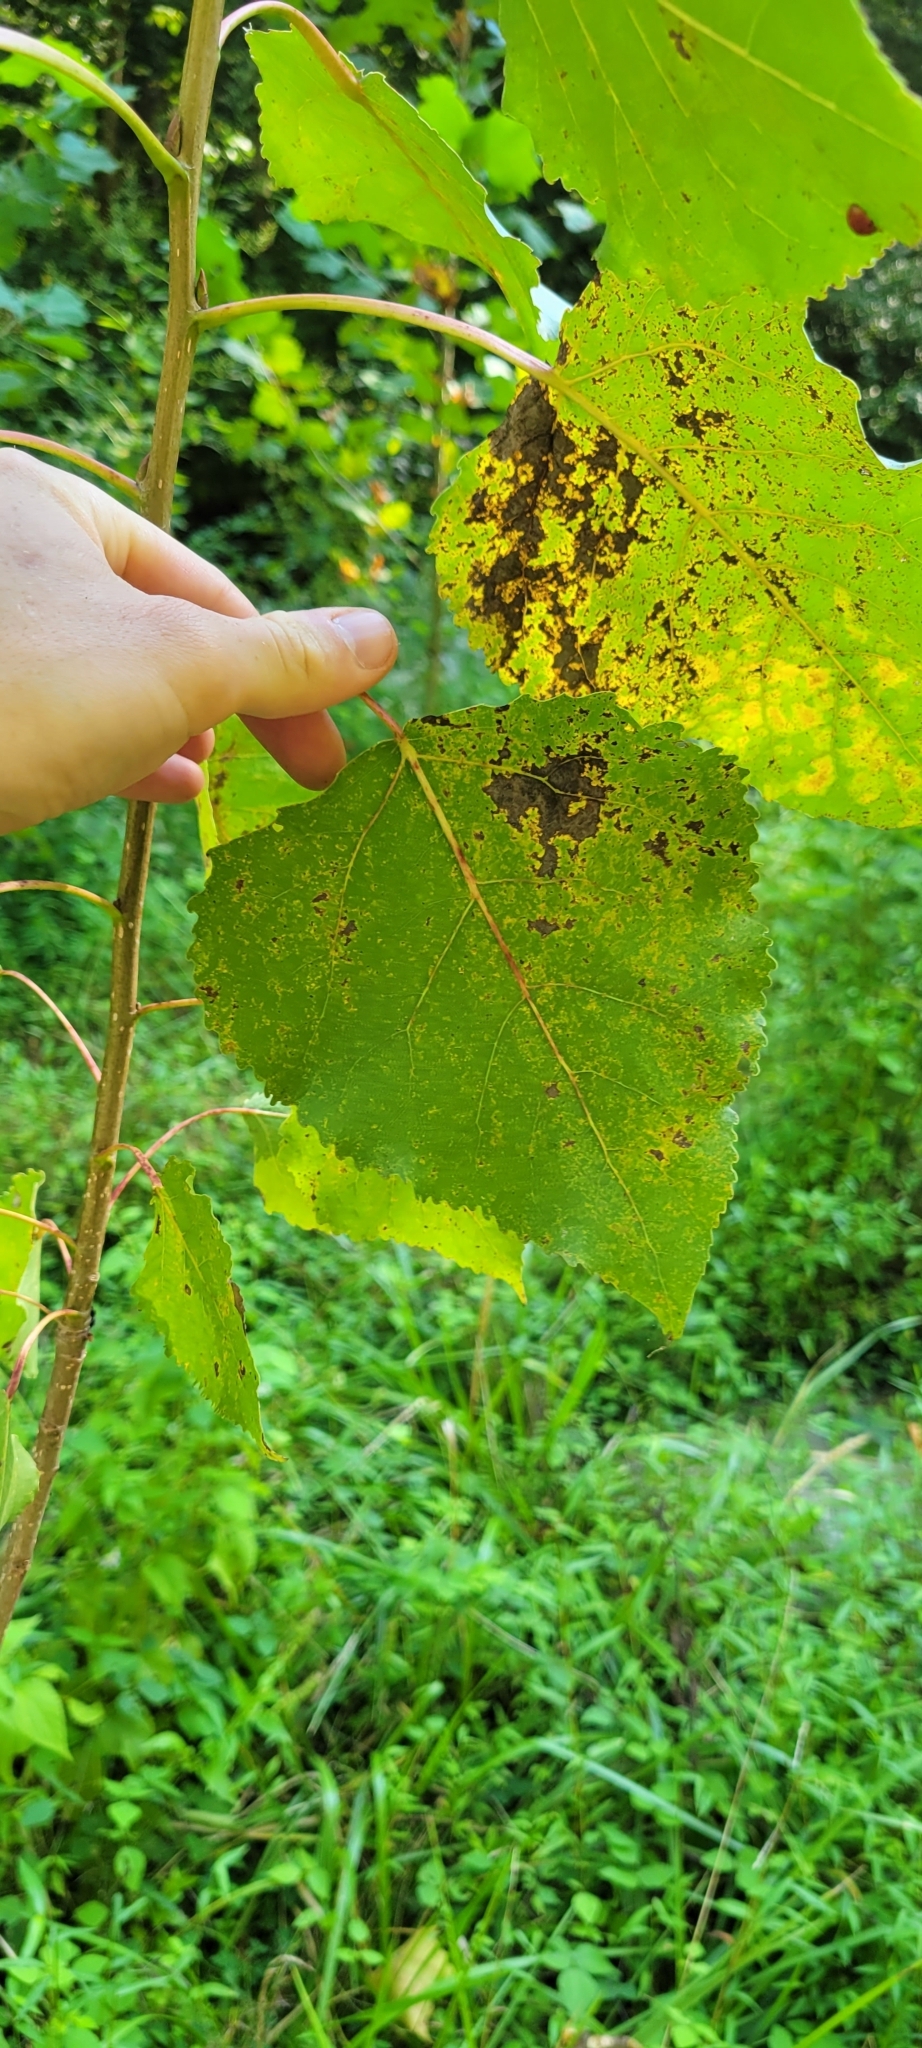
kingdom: Plantae
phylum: Tracheophyta
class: Magnoliopsida
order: Malpighiales
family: Salicaceae
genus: Populus
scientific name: Populus deltoides
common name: Eastern cottonwood
